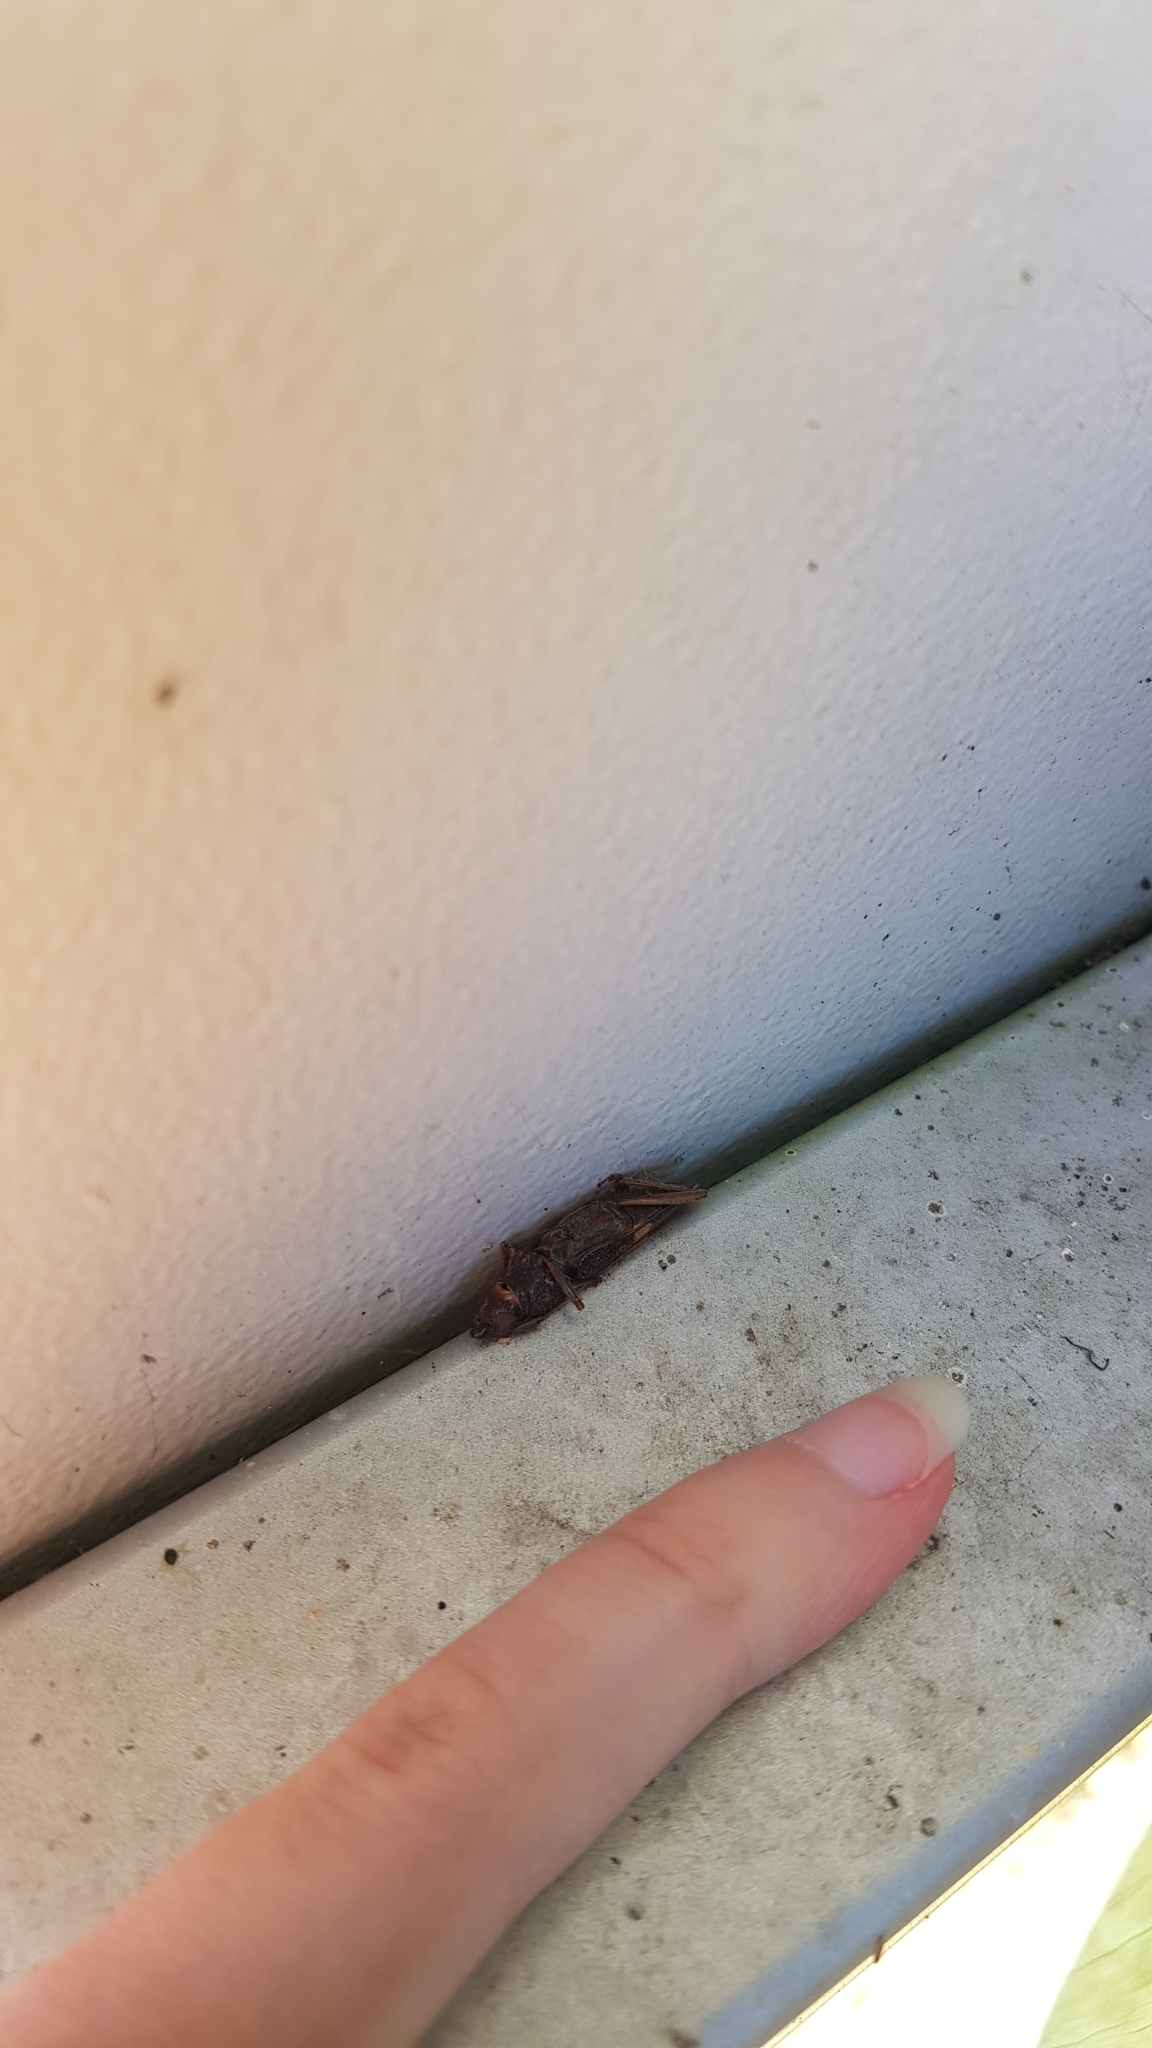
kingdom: Animalia
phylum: Arthropoda
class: Insecta
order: Coleoptera
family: Cerambycidae
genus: Phoracantha
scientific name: Phoracantha semipunctata
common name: Eucalyptus longhorn borer
